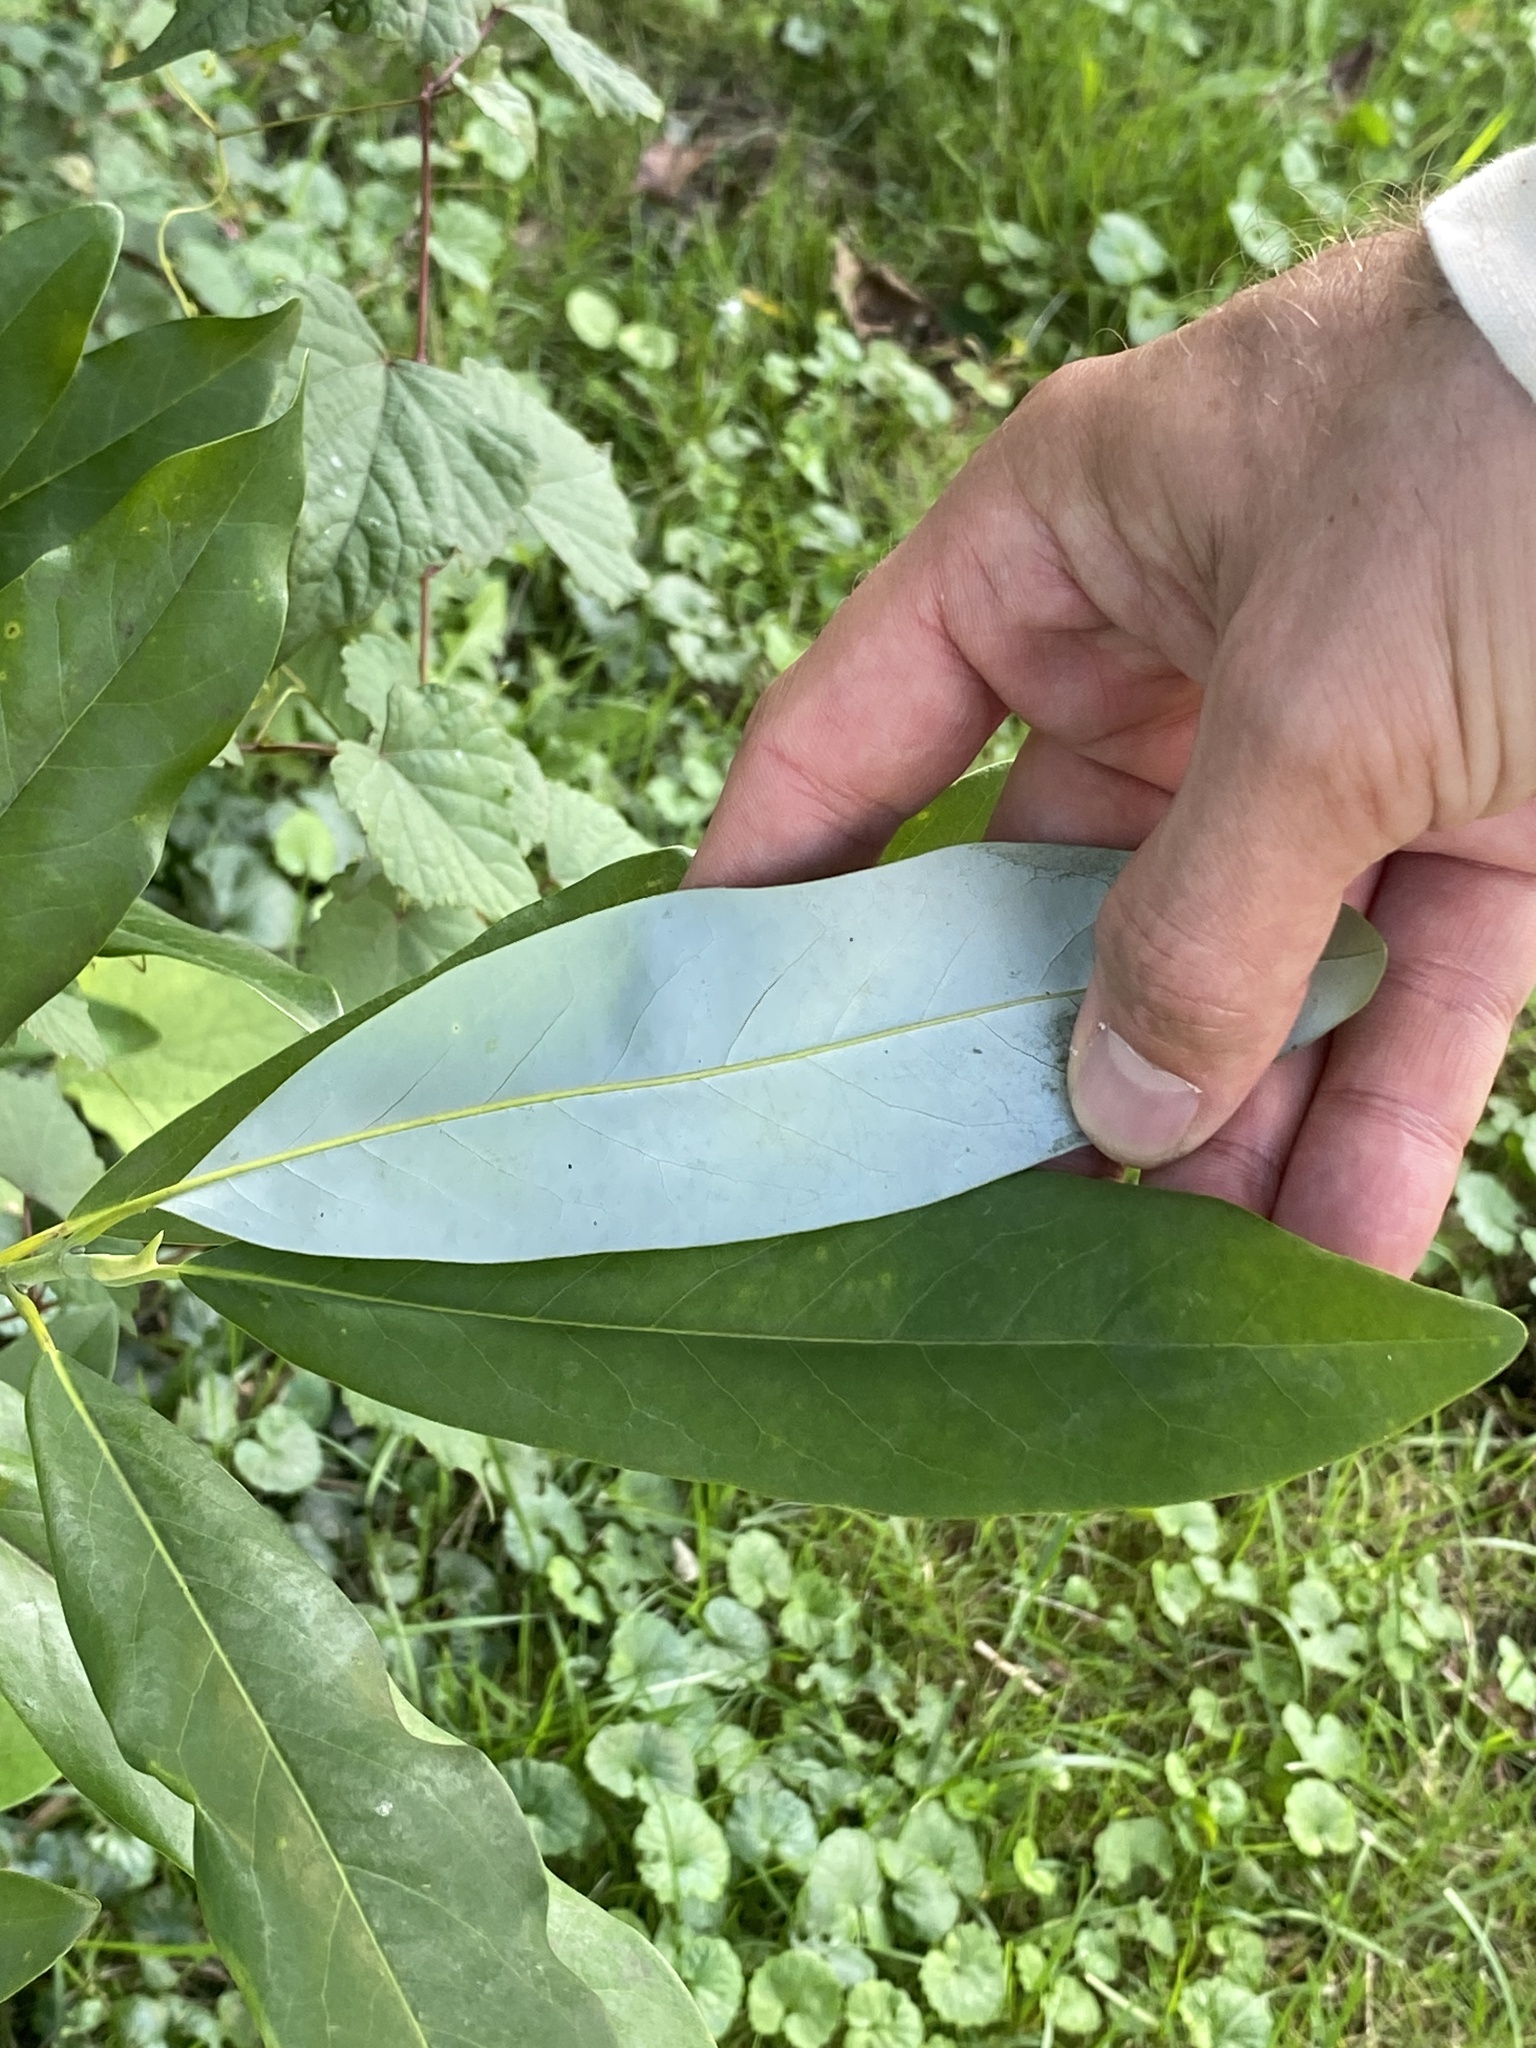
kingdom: Plantae
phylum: Tracheophyta
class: Magnoliopsida
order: Magnoliales
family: Magnoliaceae
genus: Magnolia
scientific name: Magnolia virginiana
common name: Swamp bay
